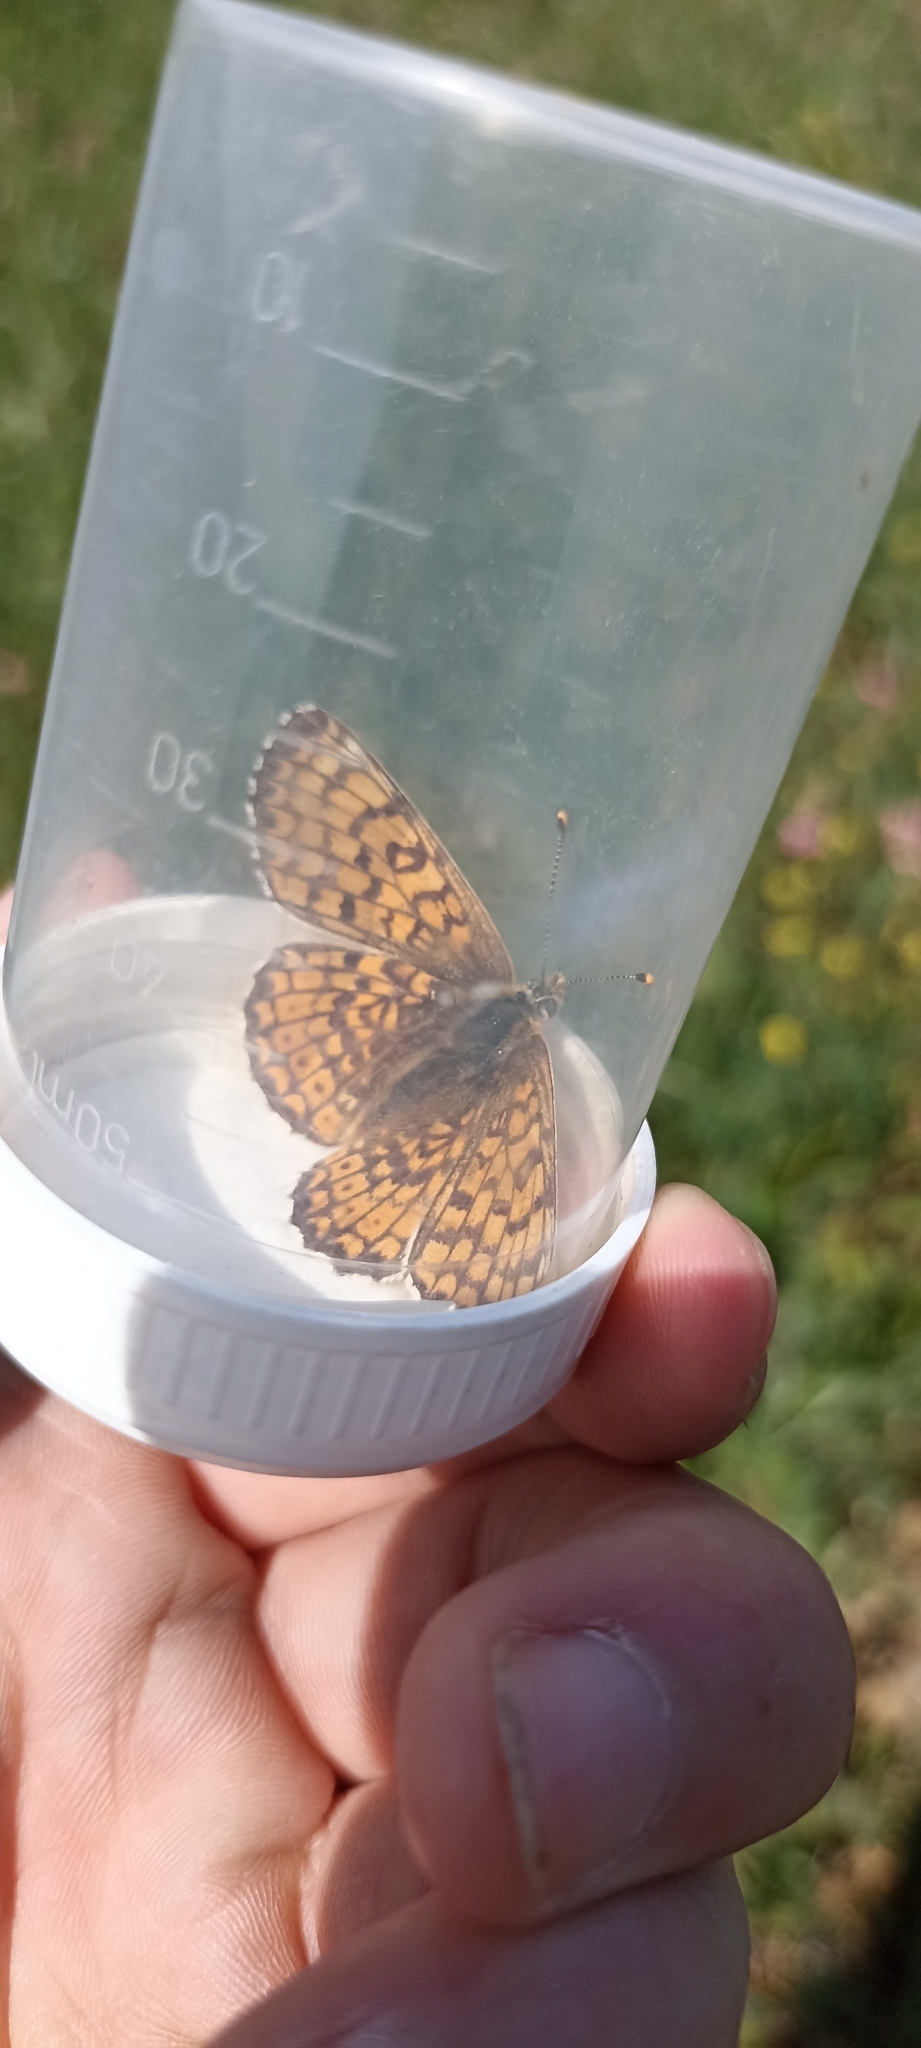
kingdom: Animalia
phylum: Arthropoda
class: Insecta
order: Lepidoptera
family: Nymphalidae
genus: Melitaea
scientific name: Melitaea cinxia
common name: Glanville fritillary
